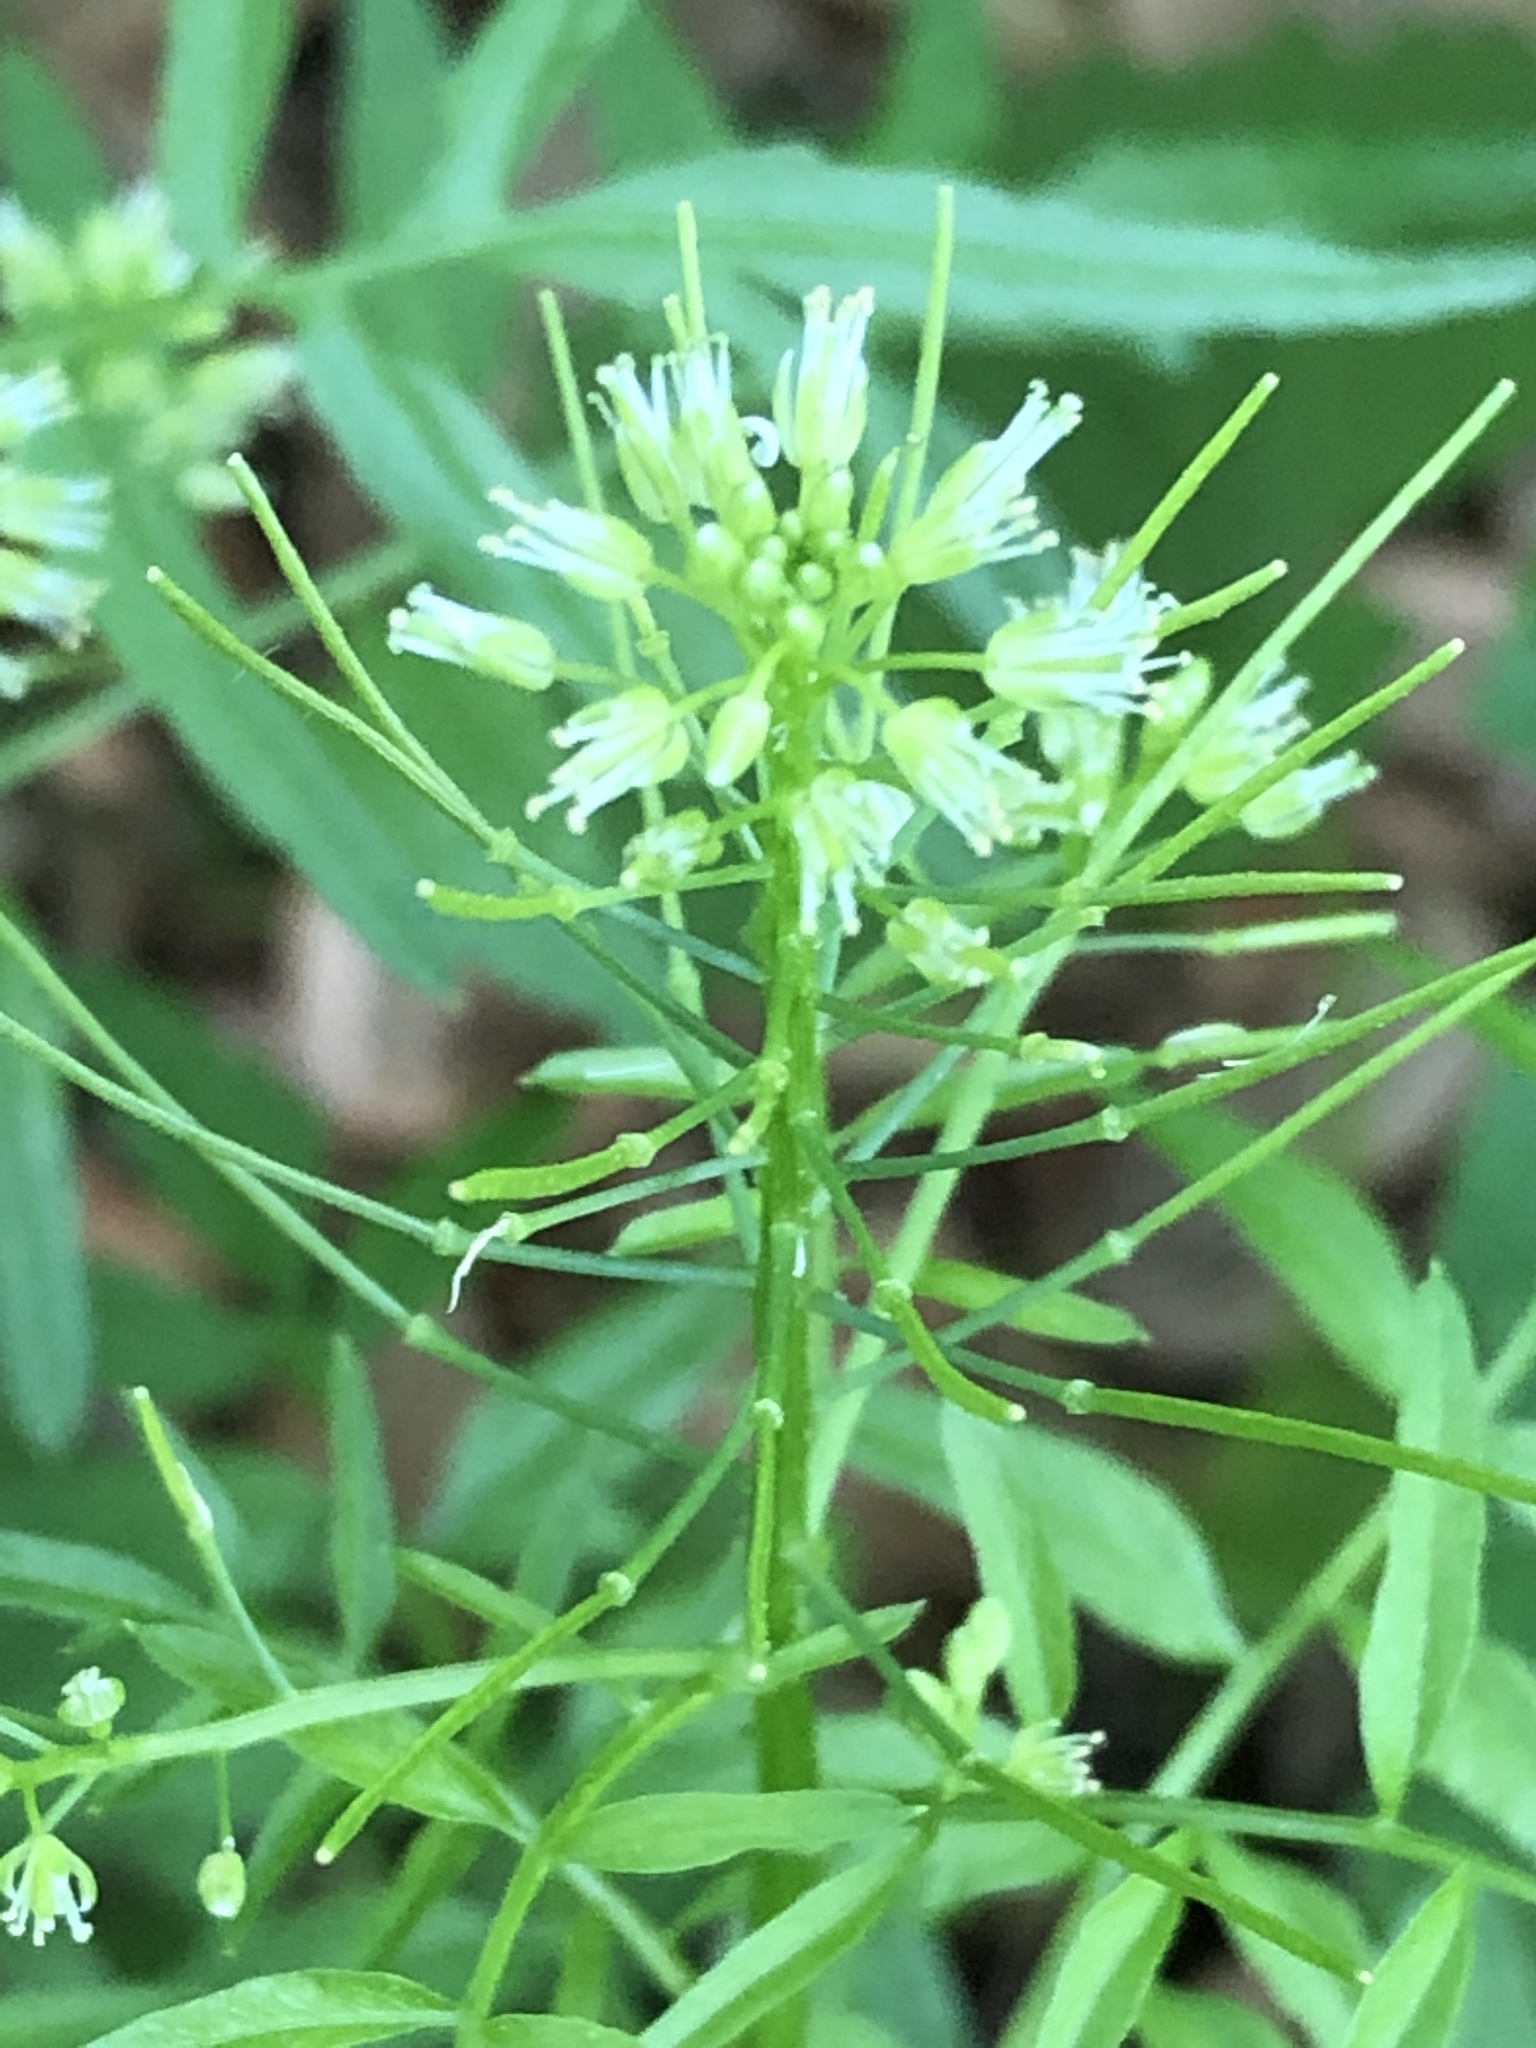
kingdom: Plantae
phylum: Tracheophyta
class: Magnoliopsida
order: Brassicales
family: Brassicaceae
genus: Cardamine
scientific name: Cardamine impatiens
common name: Narrow-leaved bitter-cress
